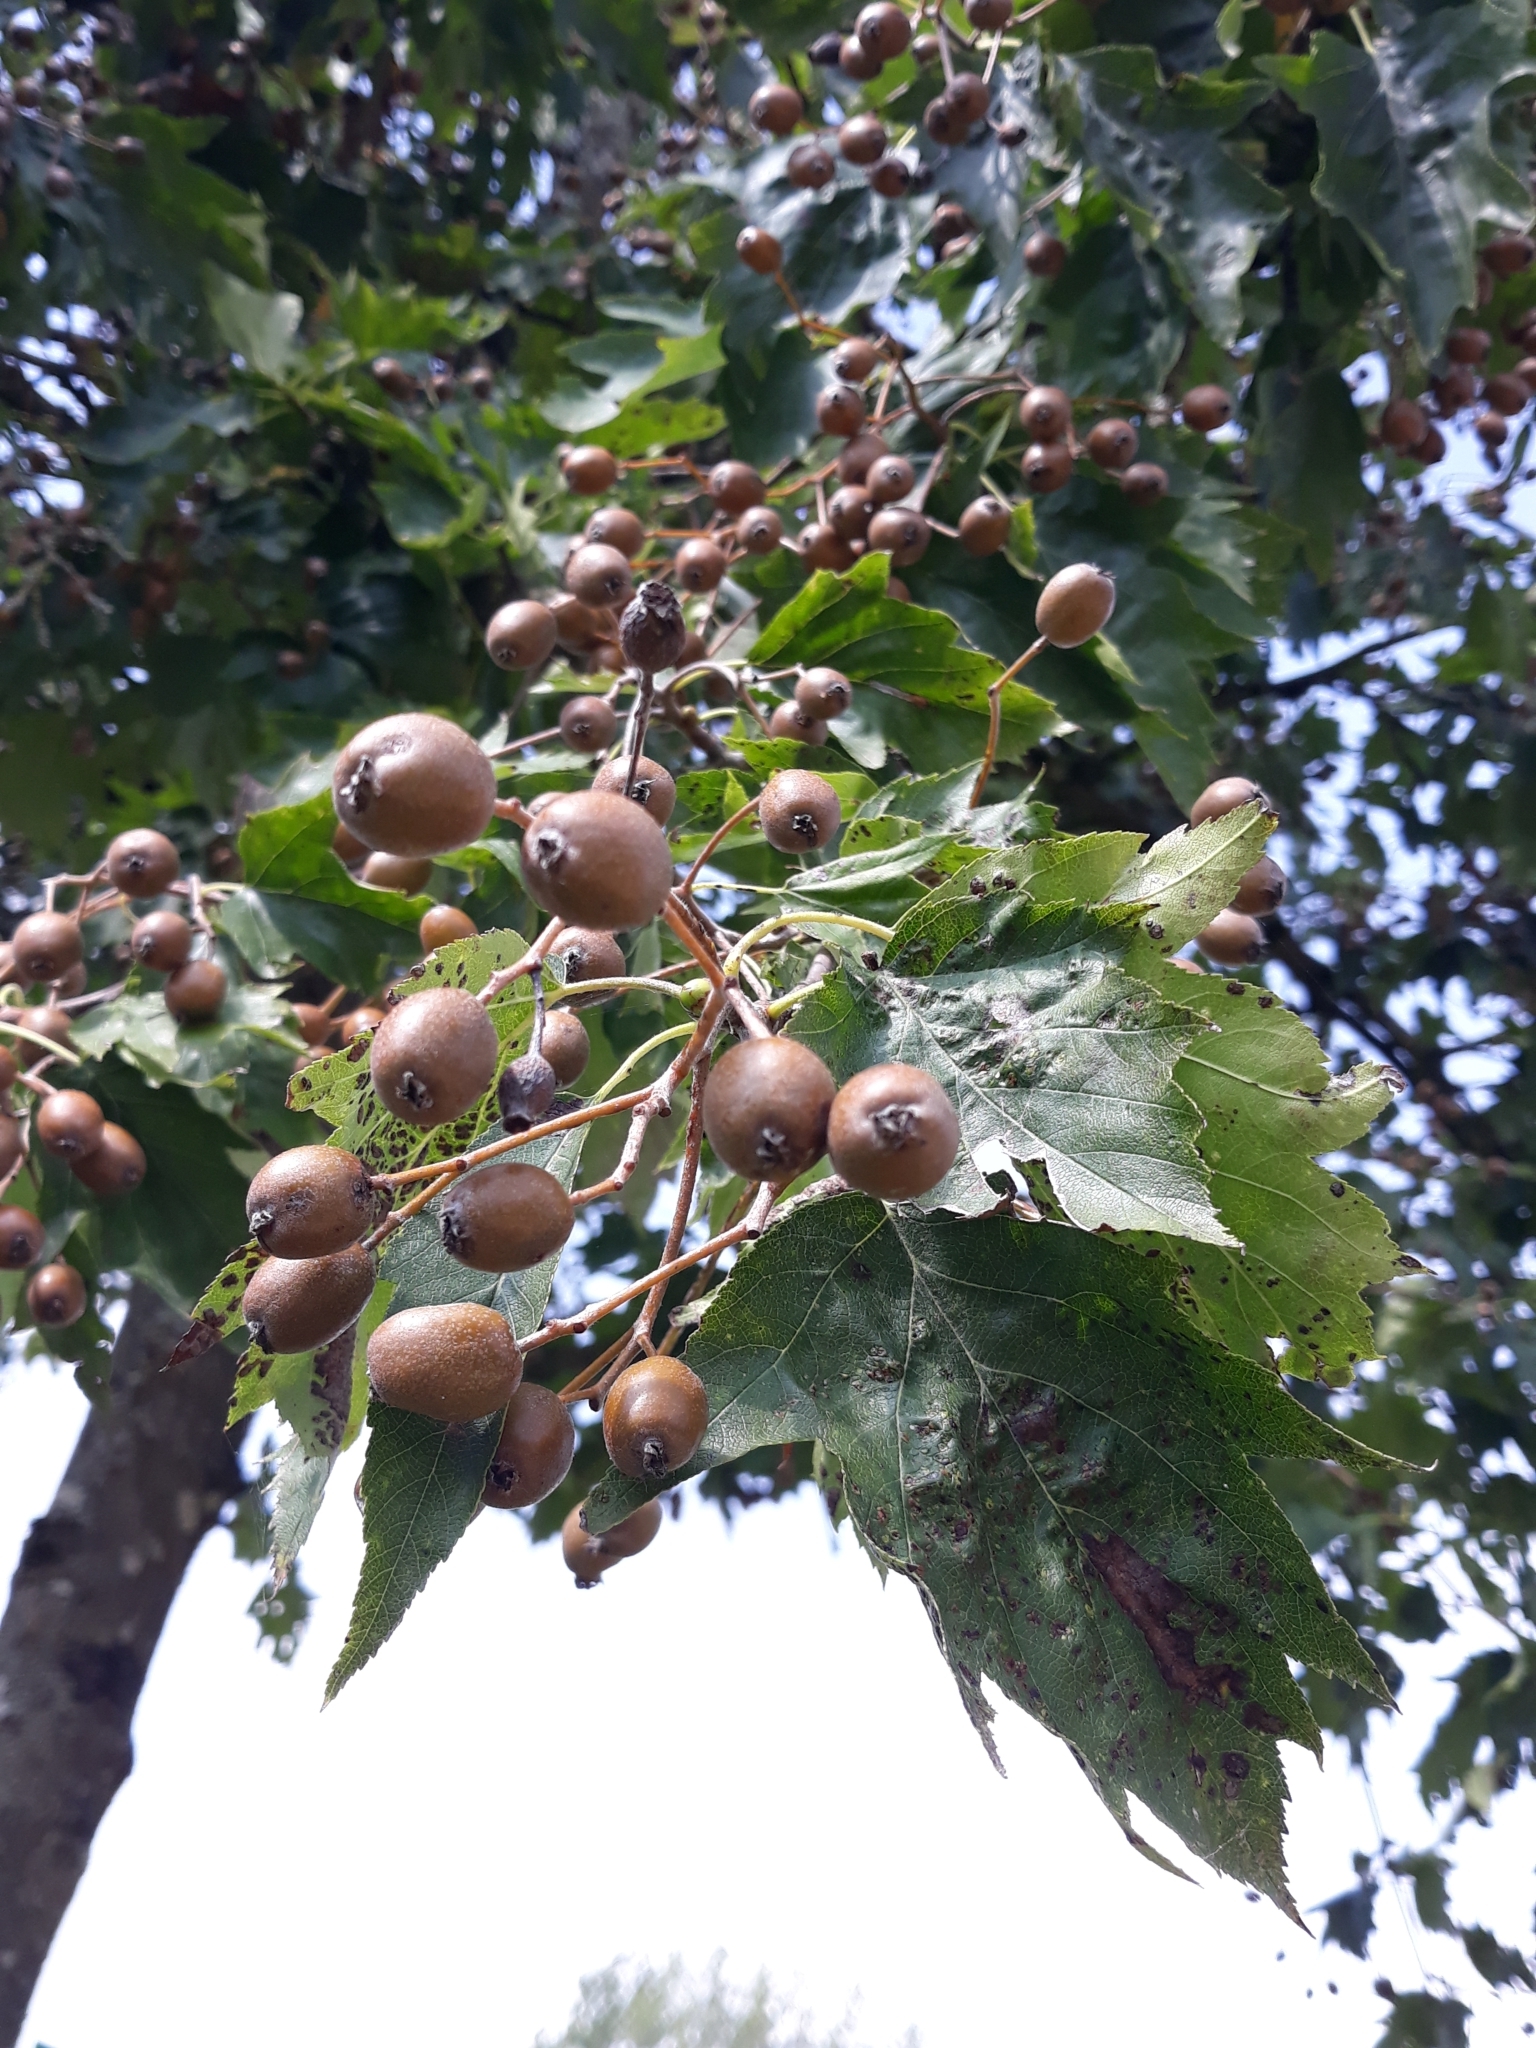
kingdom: Plantae
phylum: Tracheophyta
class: Magnoliopsida
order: Rosales
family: Rosaceae
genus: Torminalis
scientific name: Torminalis glaberrima
